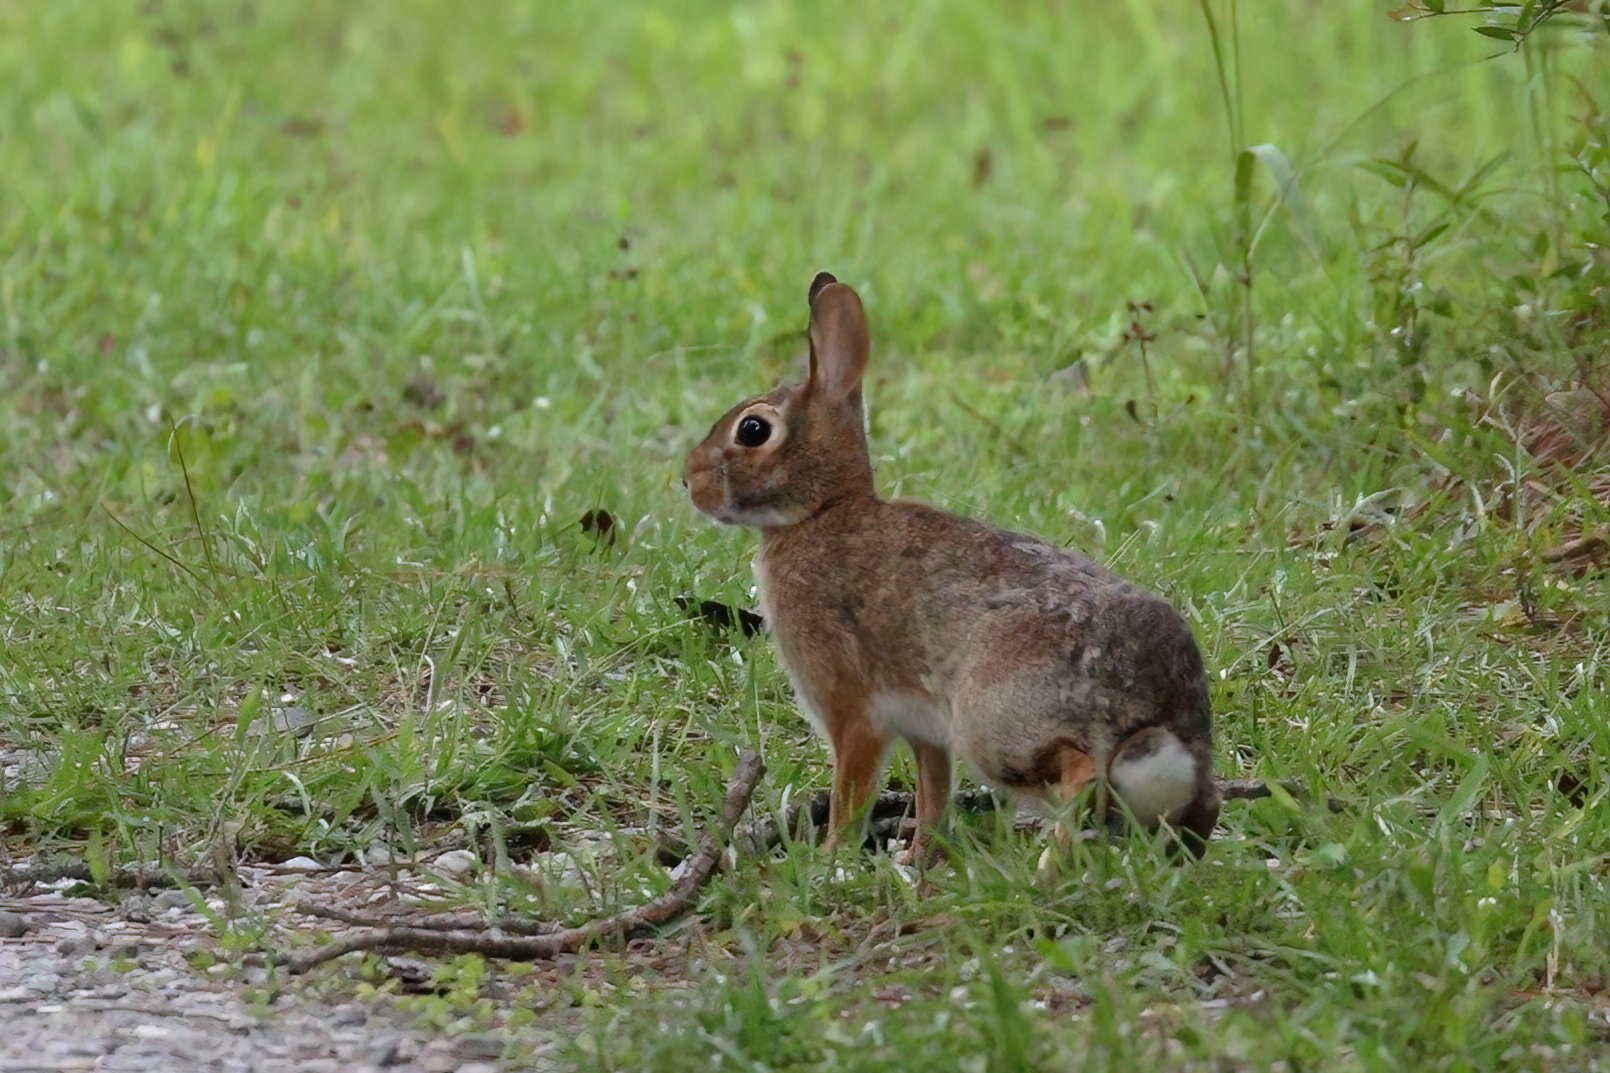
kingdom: Animalia
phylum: Chordata
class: Mammalia
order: Lagomorpha
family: Leporidae
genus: Sylvilagus
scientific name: Sylvilagus floridanus
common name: Eastern cottontail
